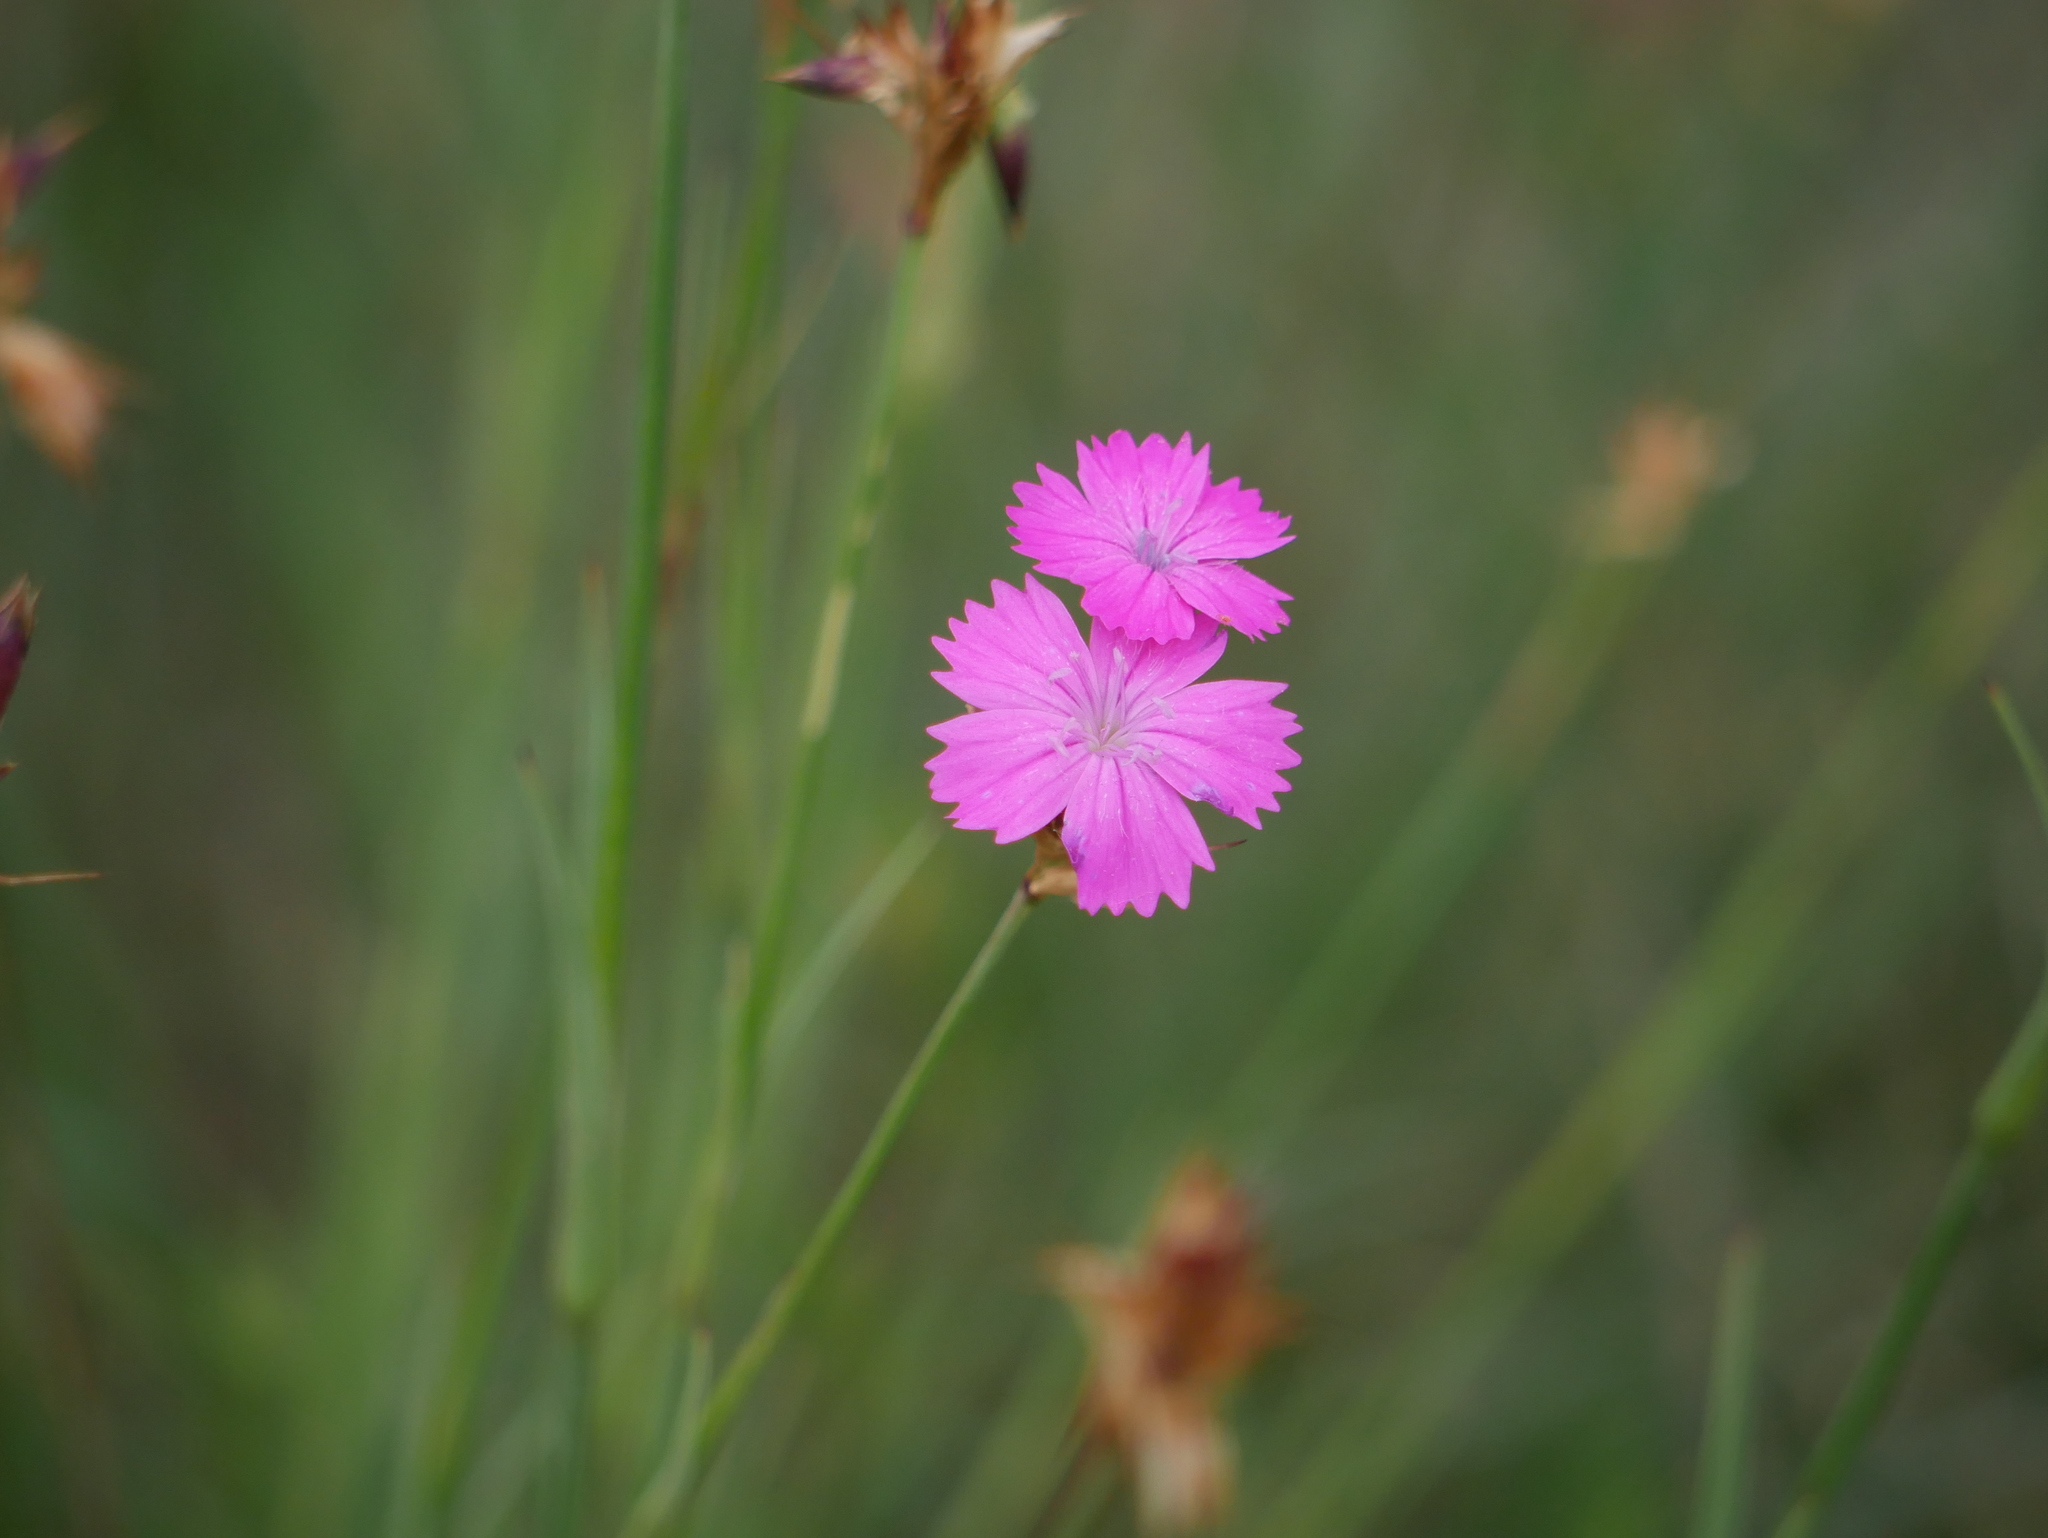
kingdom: Plantae
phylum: Tracheophyta
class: Magnoliopsida
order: Caryophyllales
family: Caryophyllaceae
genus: Dianthus
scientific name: Dianthus carthusianorum
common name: Carthusian pink
